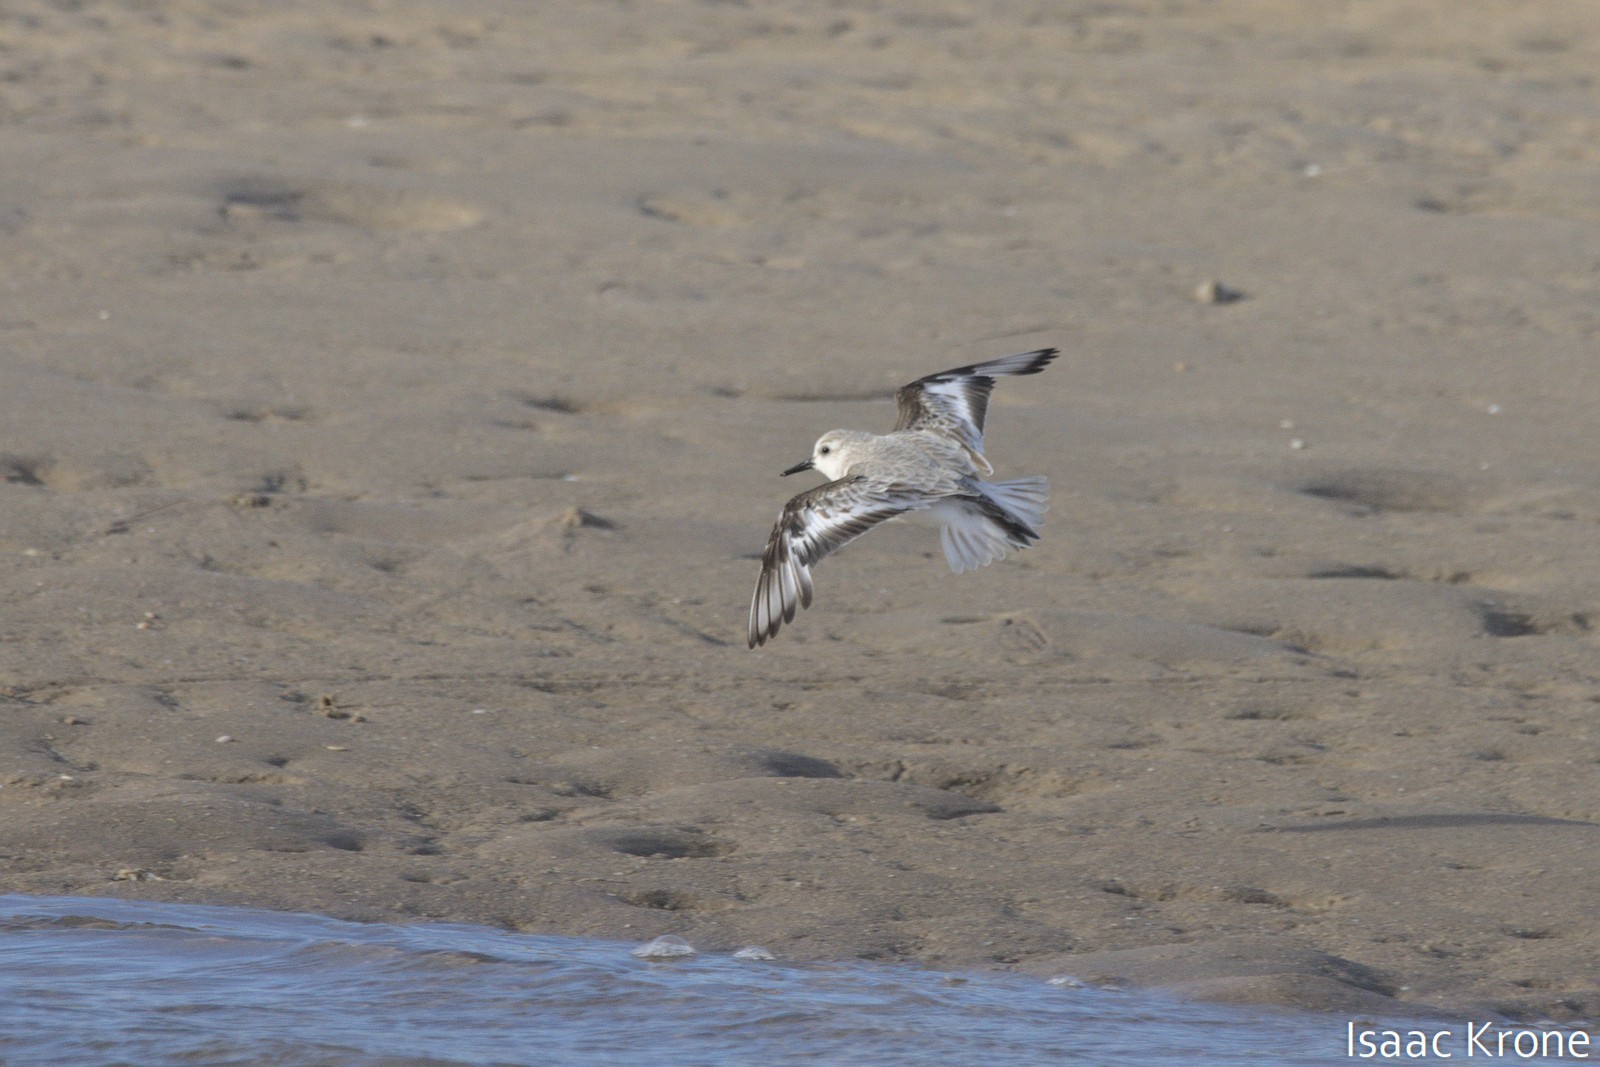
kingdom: Animalia
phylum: Chordata
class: Aves
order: Charadriiformes
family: Scolopacidae
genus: Calidris
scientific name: Calidris alba
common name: Sanderling
